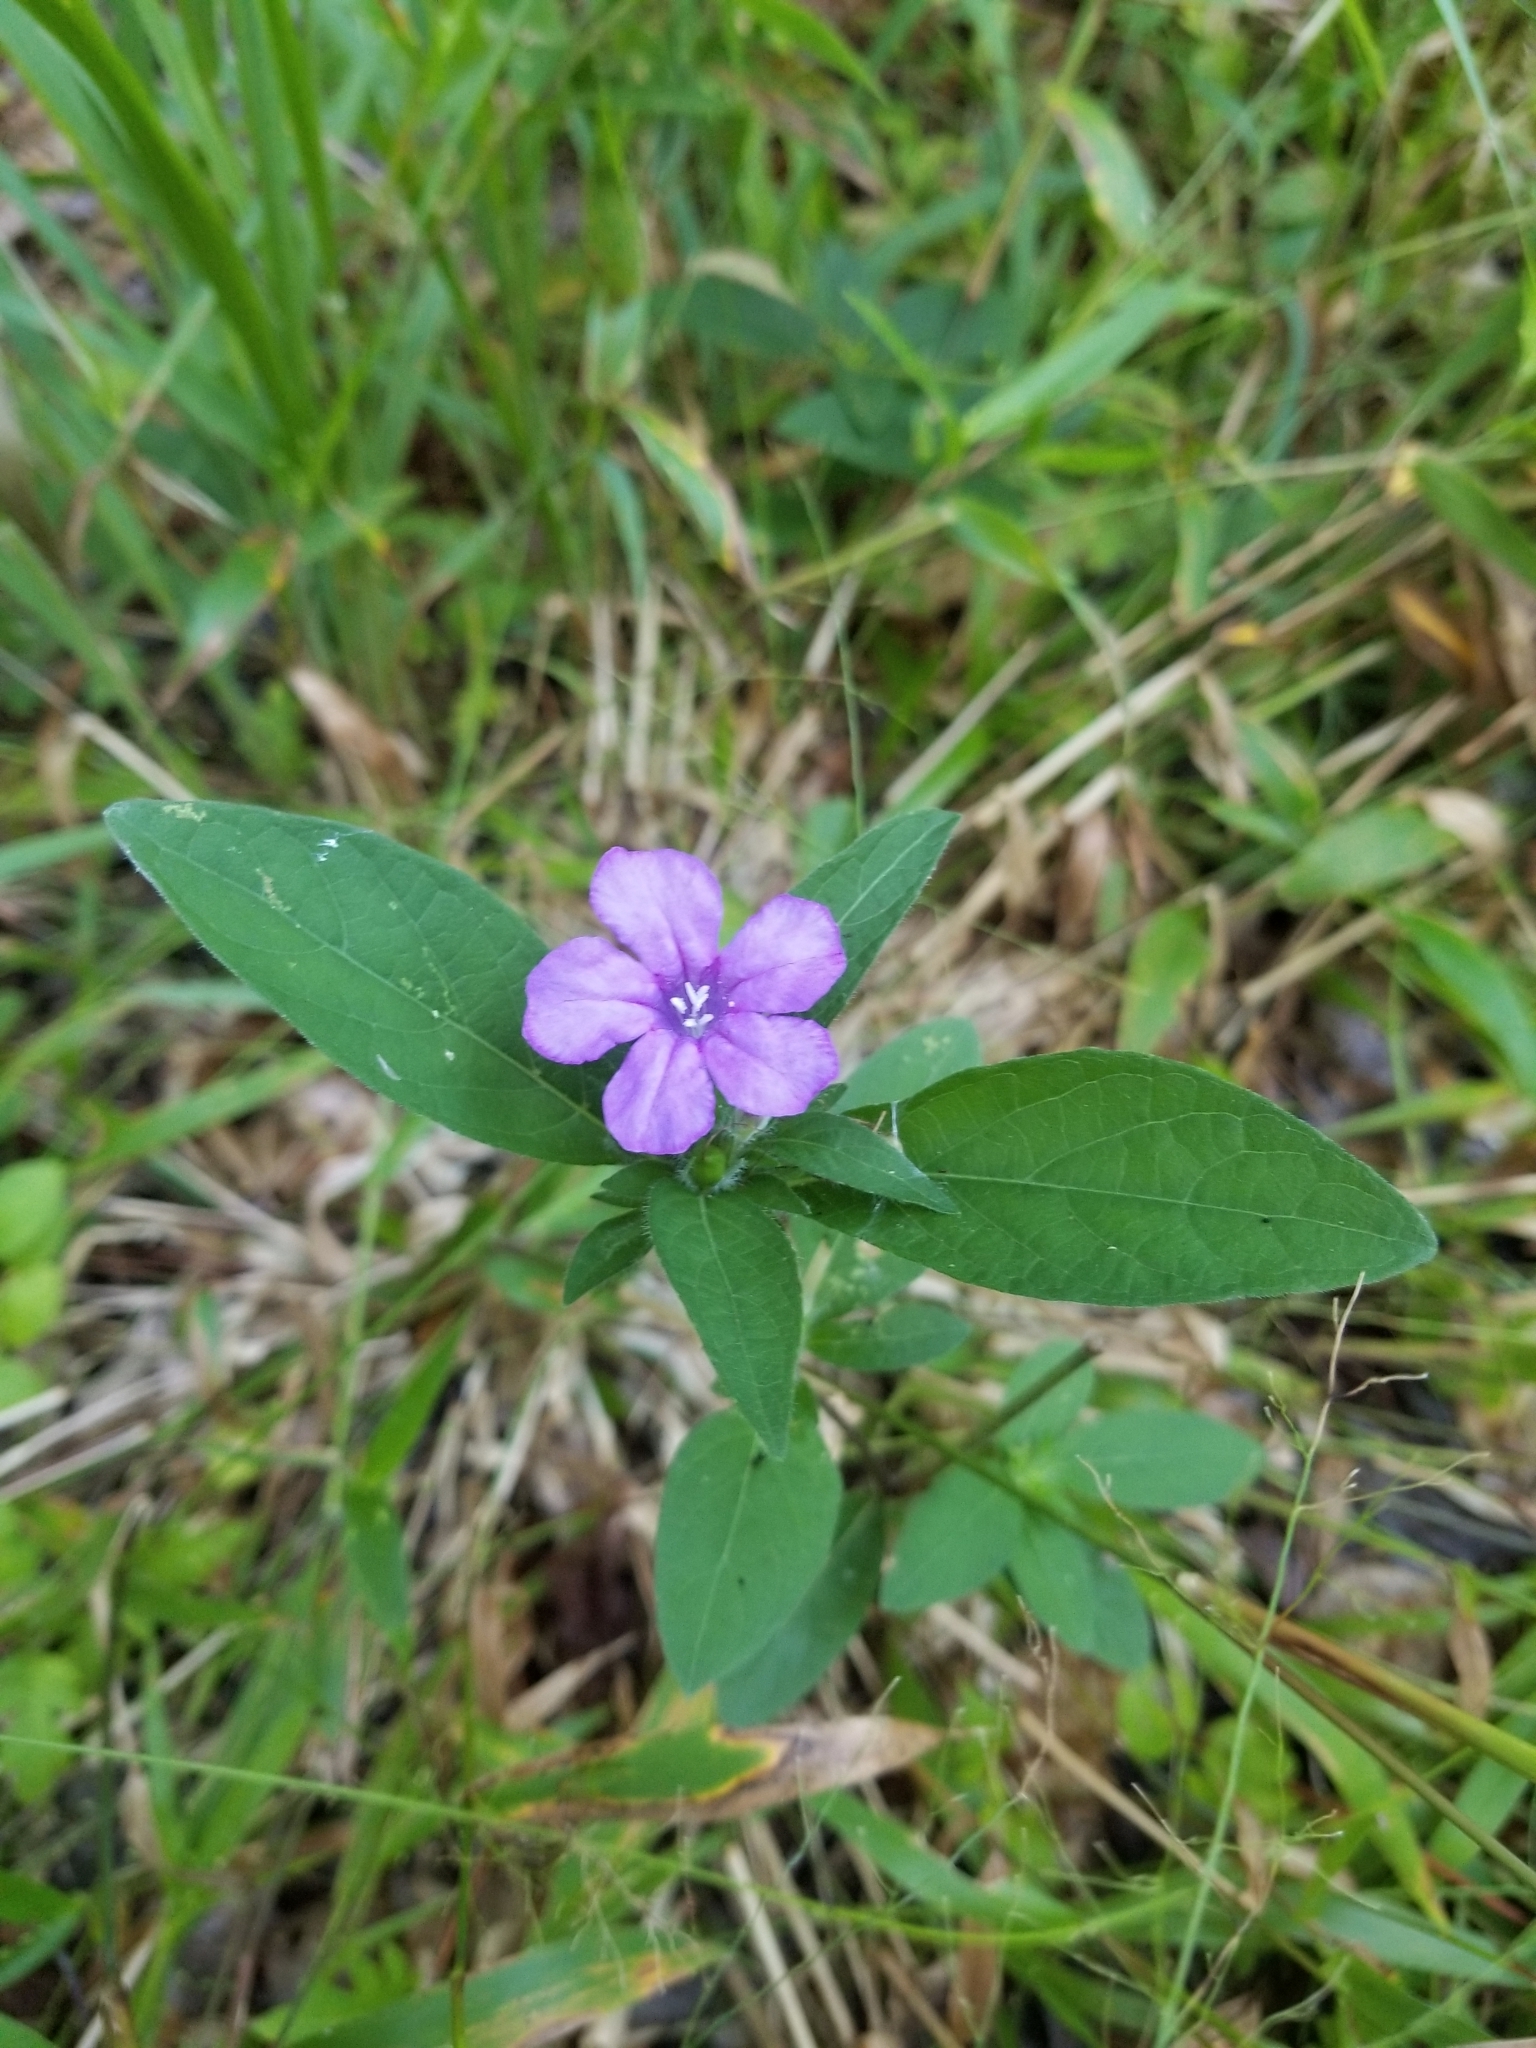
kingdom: Plantae
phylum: Tracheophyta
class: Magnoliopsida
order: Lamiales
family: Acanthaceae
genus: Ruellia
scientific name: Ruellia caroliniensis
